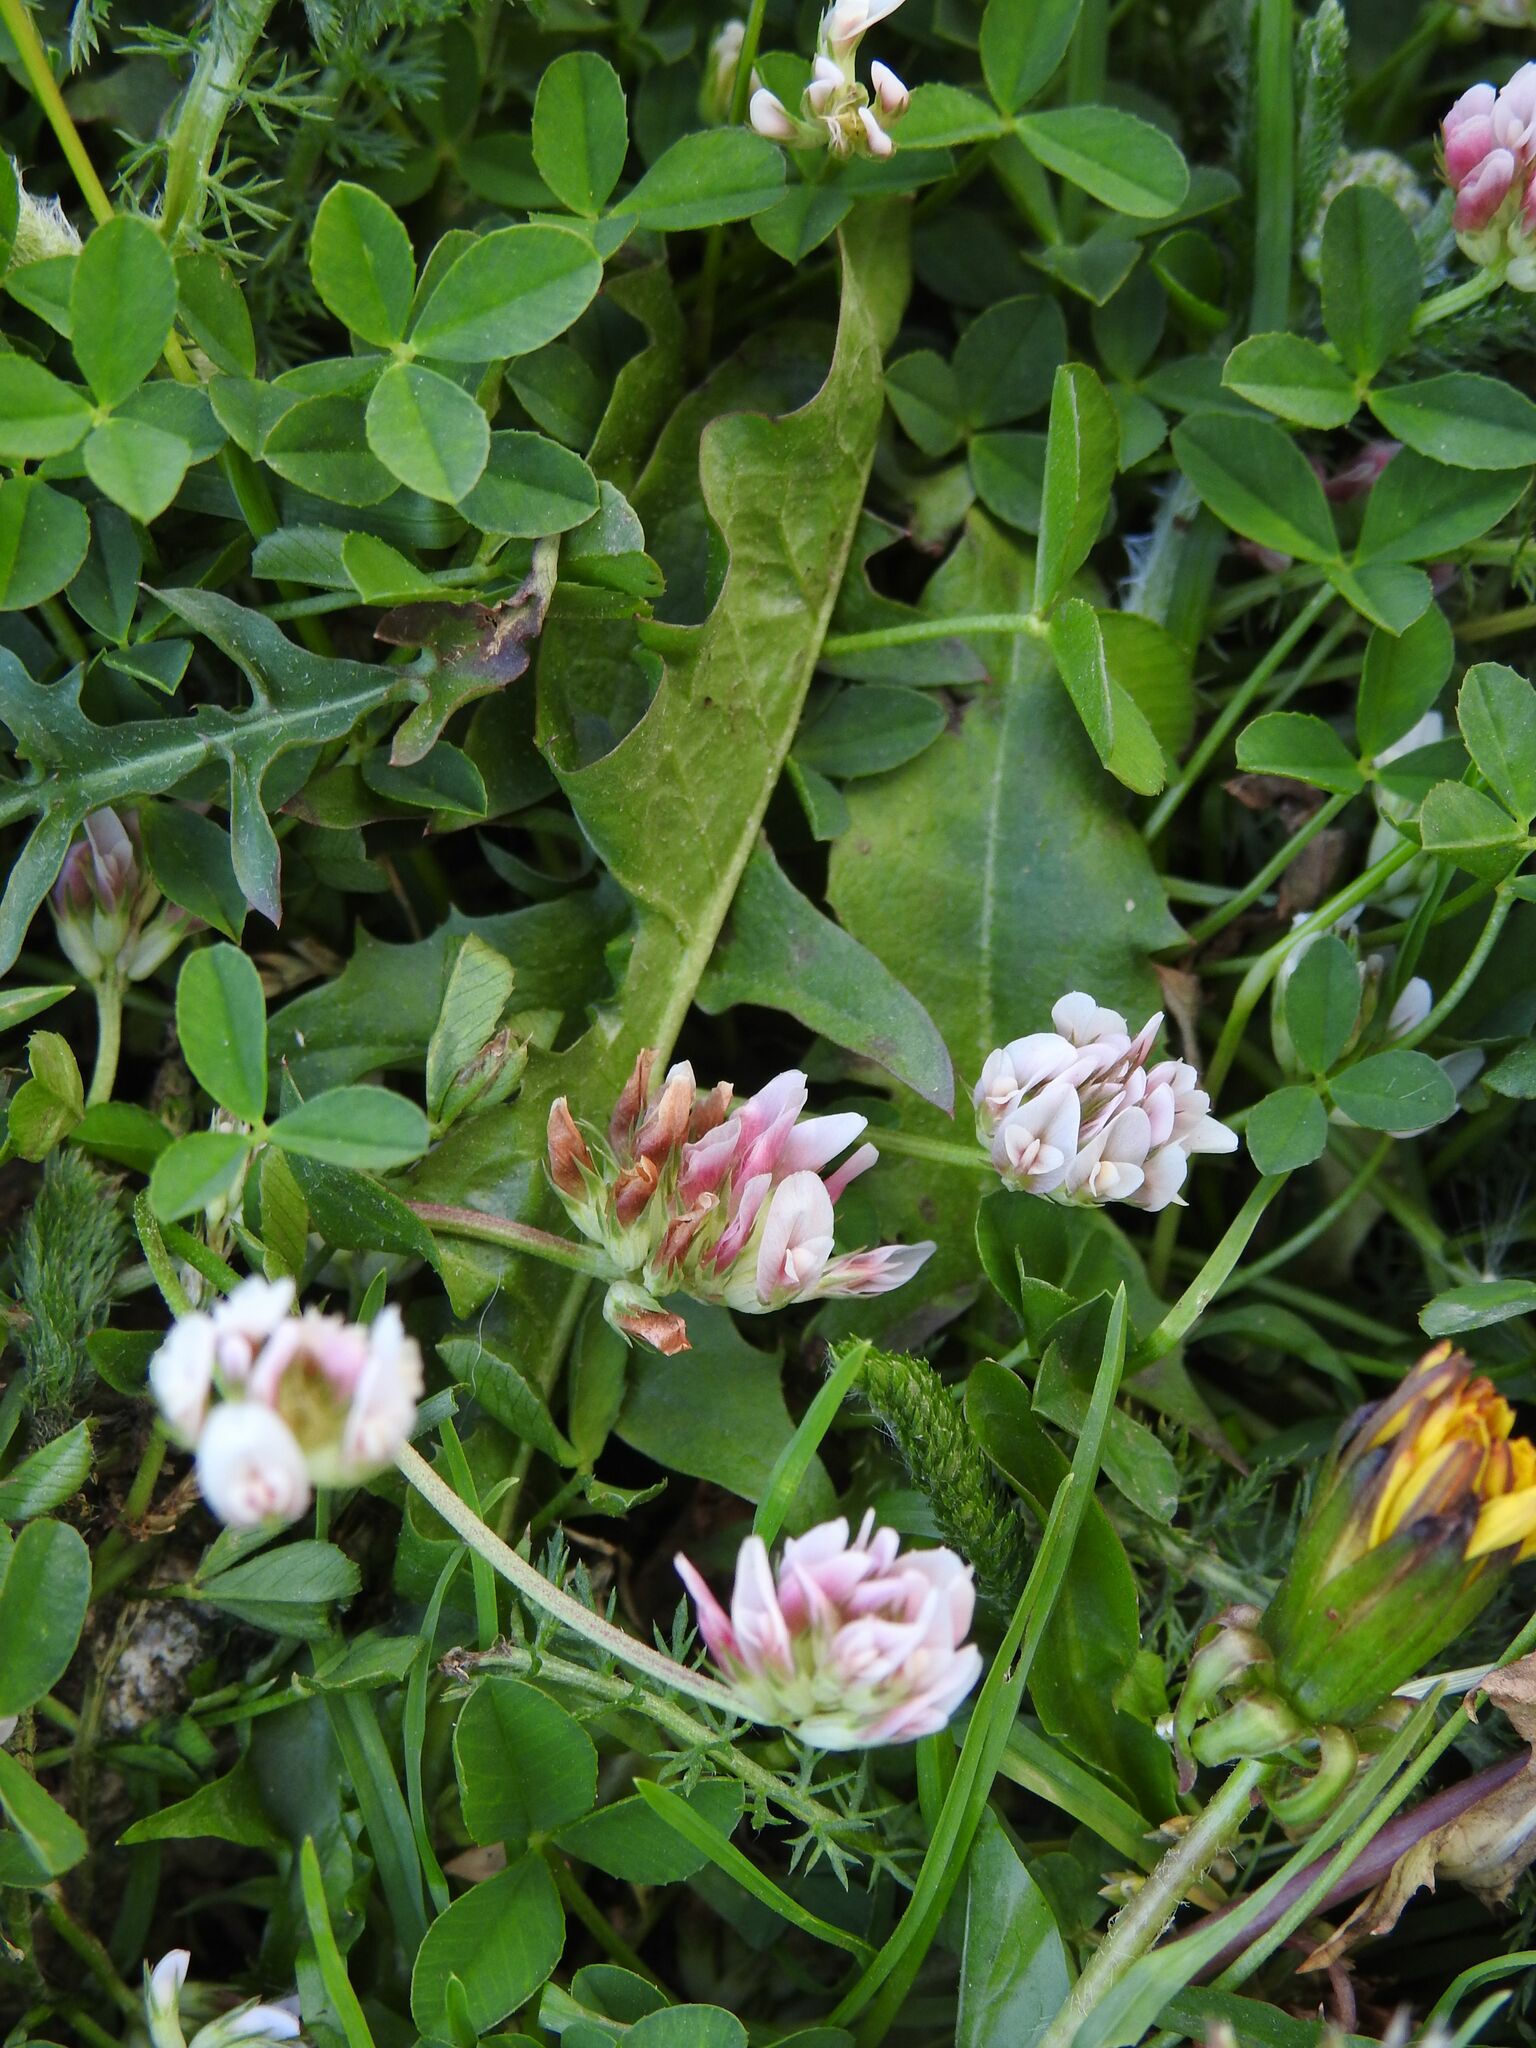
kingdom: Plantae
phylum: Tracheophyta
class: Magnoliopsida
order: Fabales
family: Fabaceae
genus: Trifolium
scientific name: Trifolium thalii
